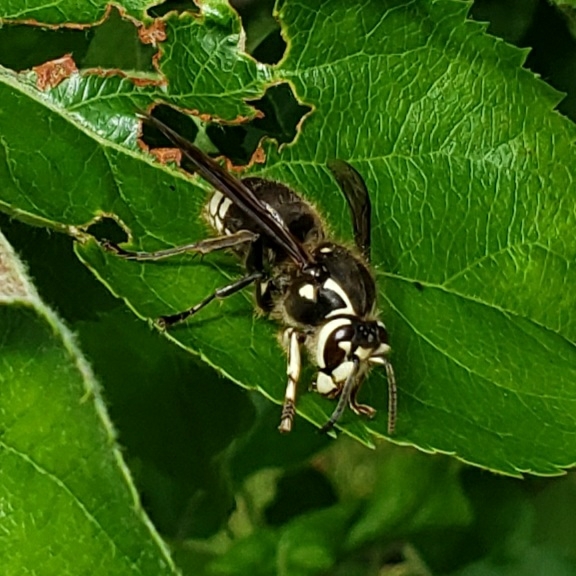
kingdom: Animalia
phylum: Arthropoda
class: Insecta
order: Hymenoptera
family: Vespidae
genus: Dolichovespula
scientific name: Dolichovespula maculata
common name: Bald-faced hornet
